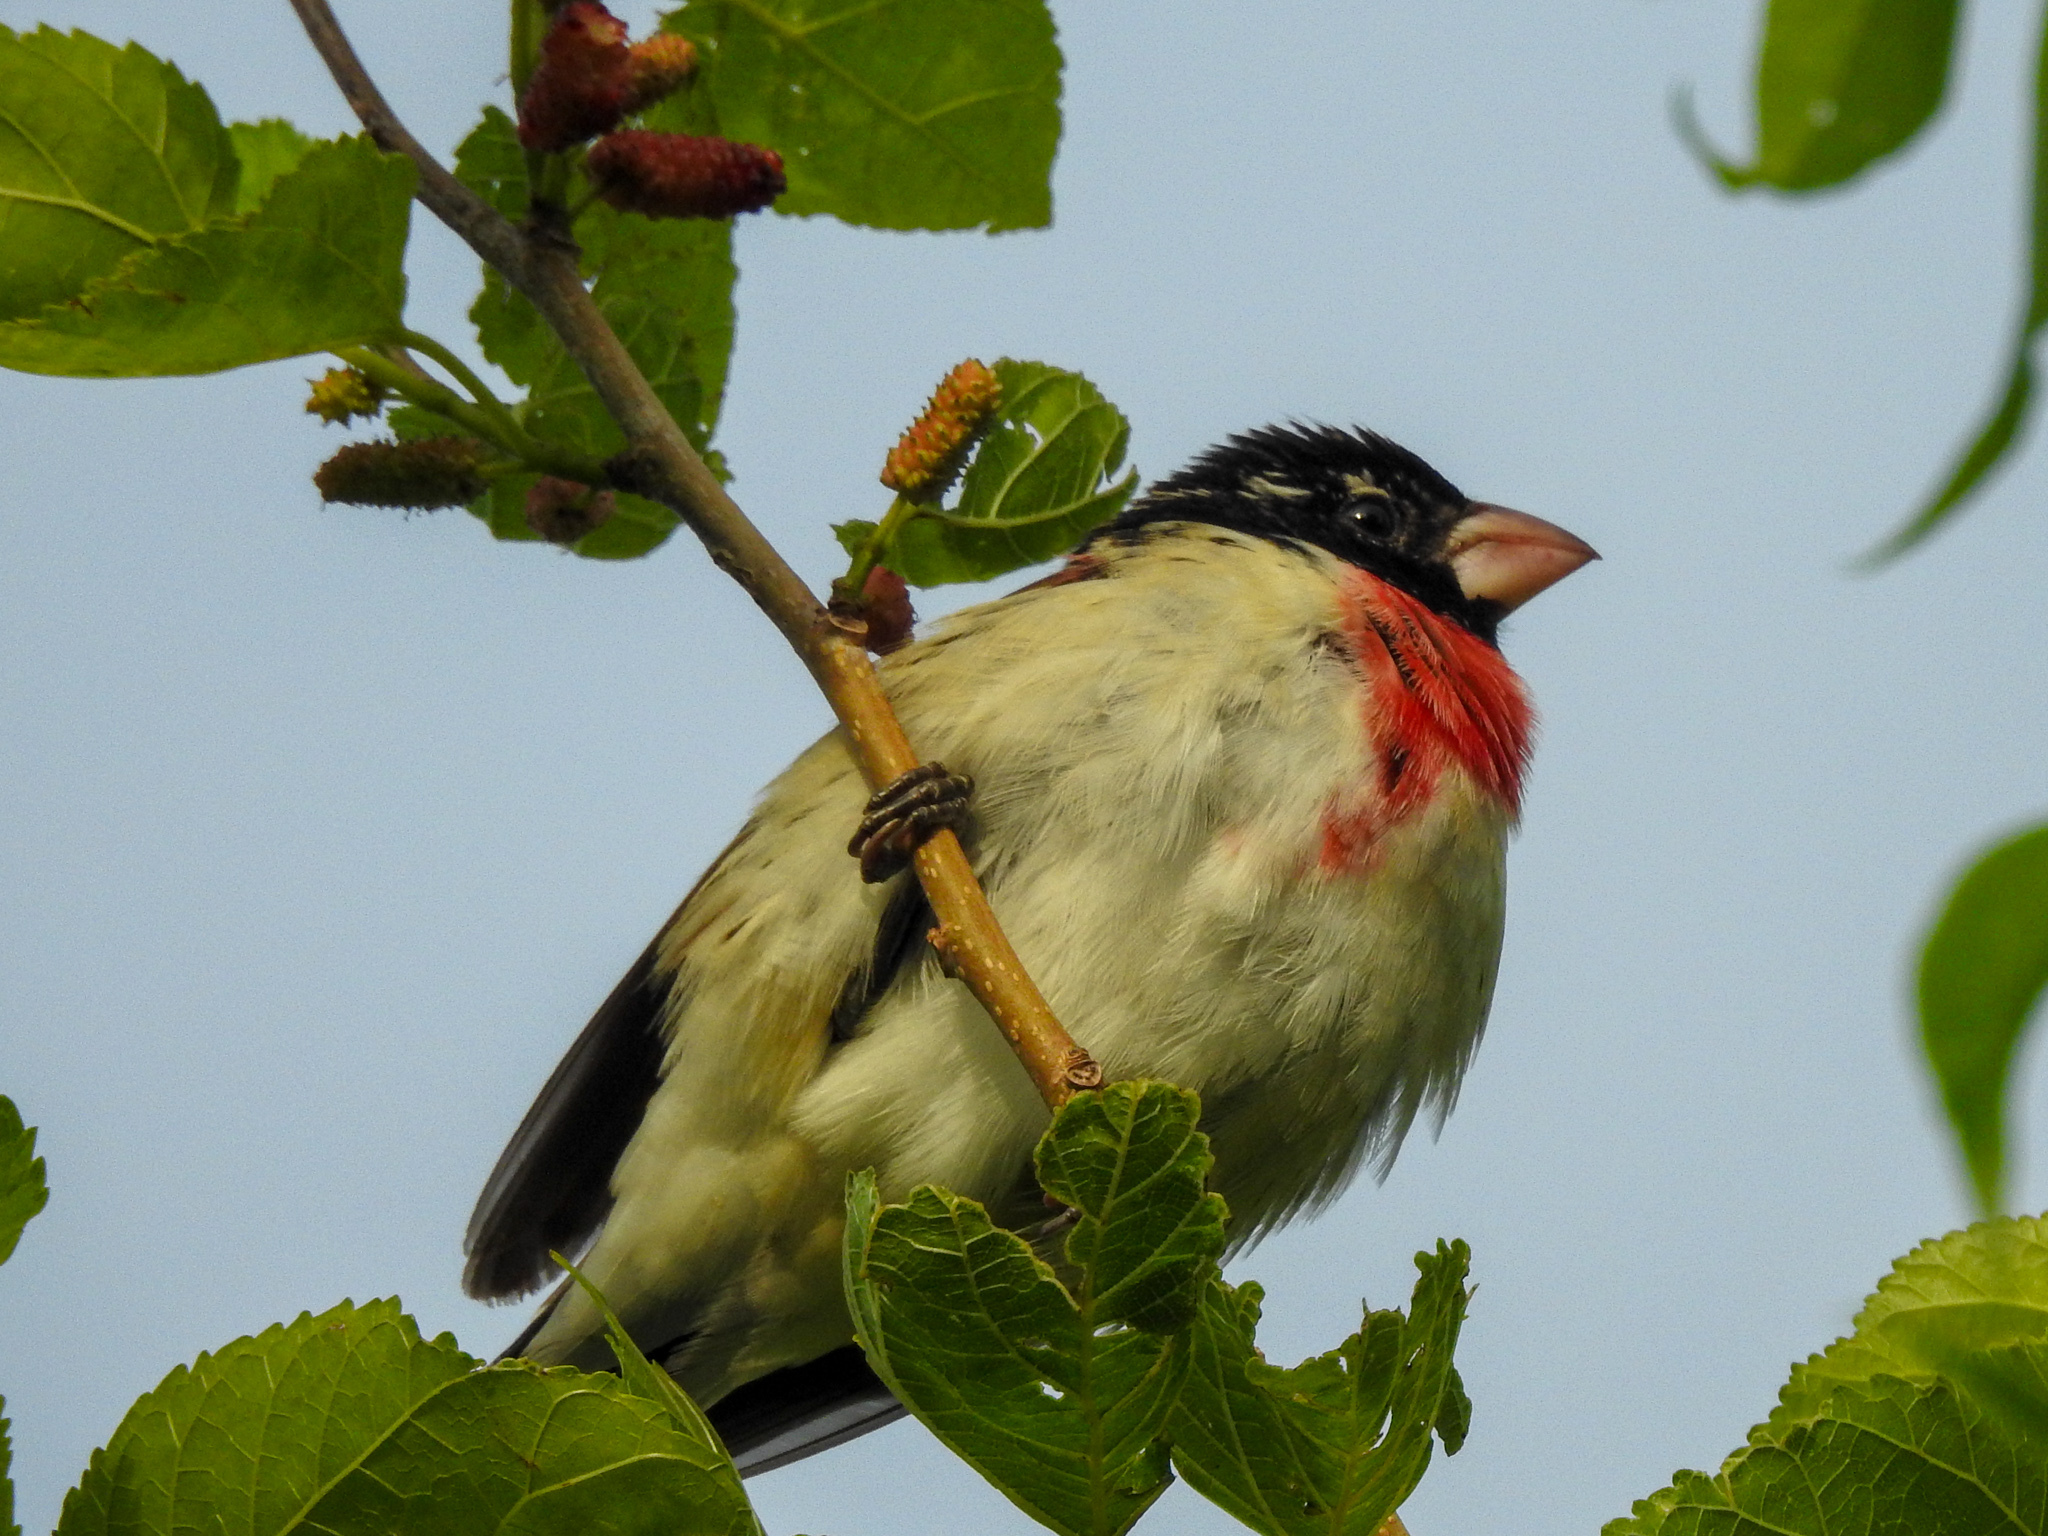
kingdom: Animalia
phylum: Chordata
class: Aves
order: Passeriformes
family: Cardinalidae
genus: Pheucticus
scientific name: Pheucticus ludovicianus
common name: Rose-breasted grosbeak
